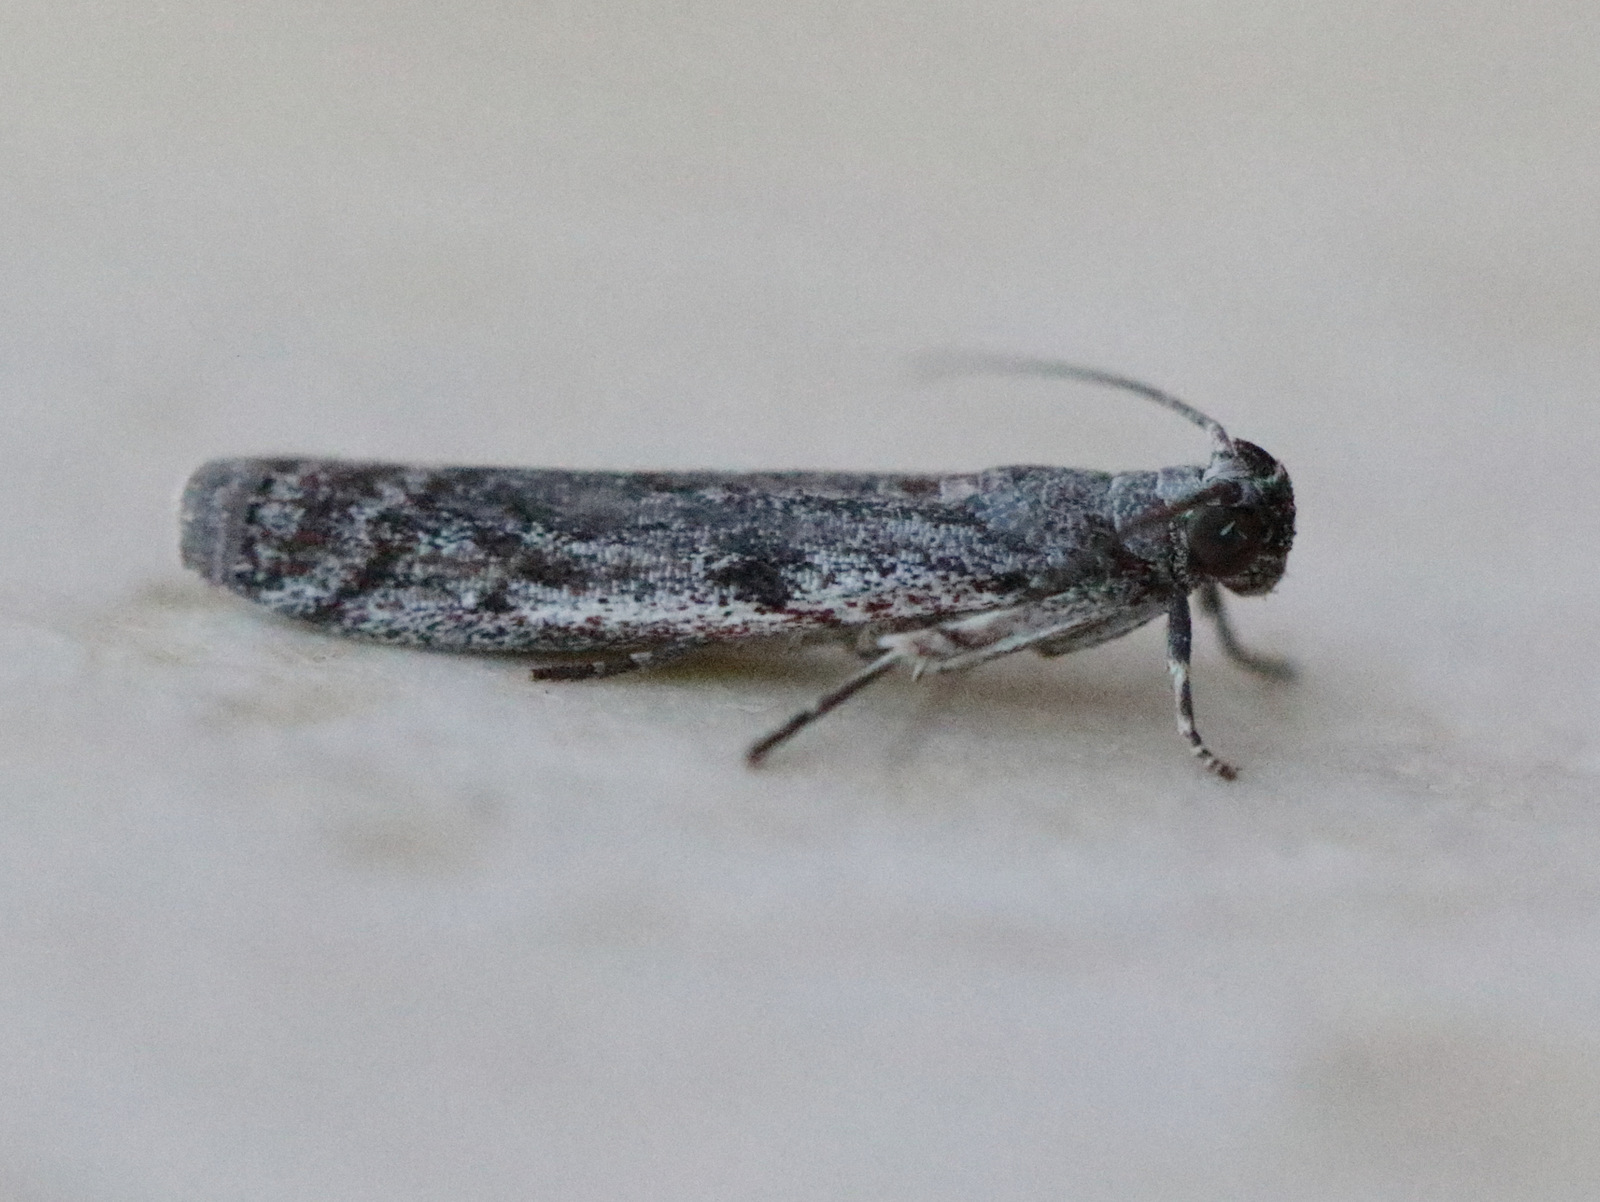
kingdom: Animalia
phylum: Arthropoda
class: Insecta
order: Lepidoptera
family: Pyralidae
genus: Cryptoblabes
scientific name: Cryptoblabes hemigypsa
